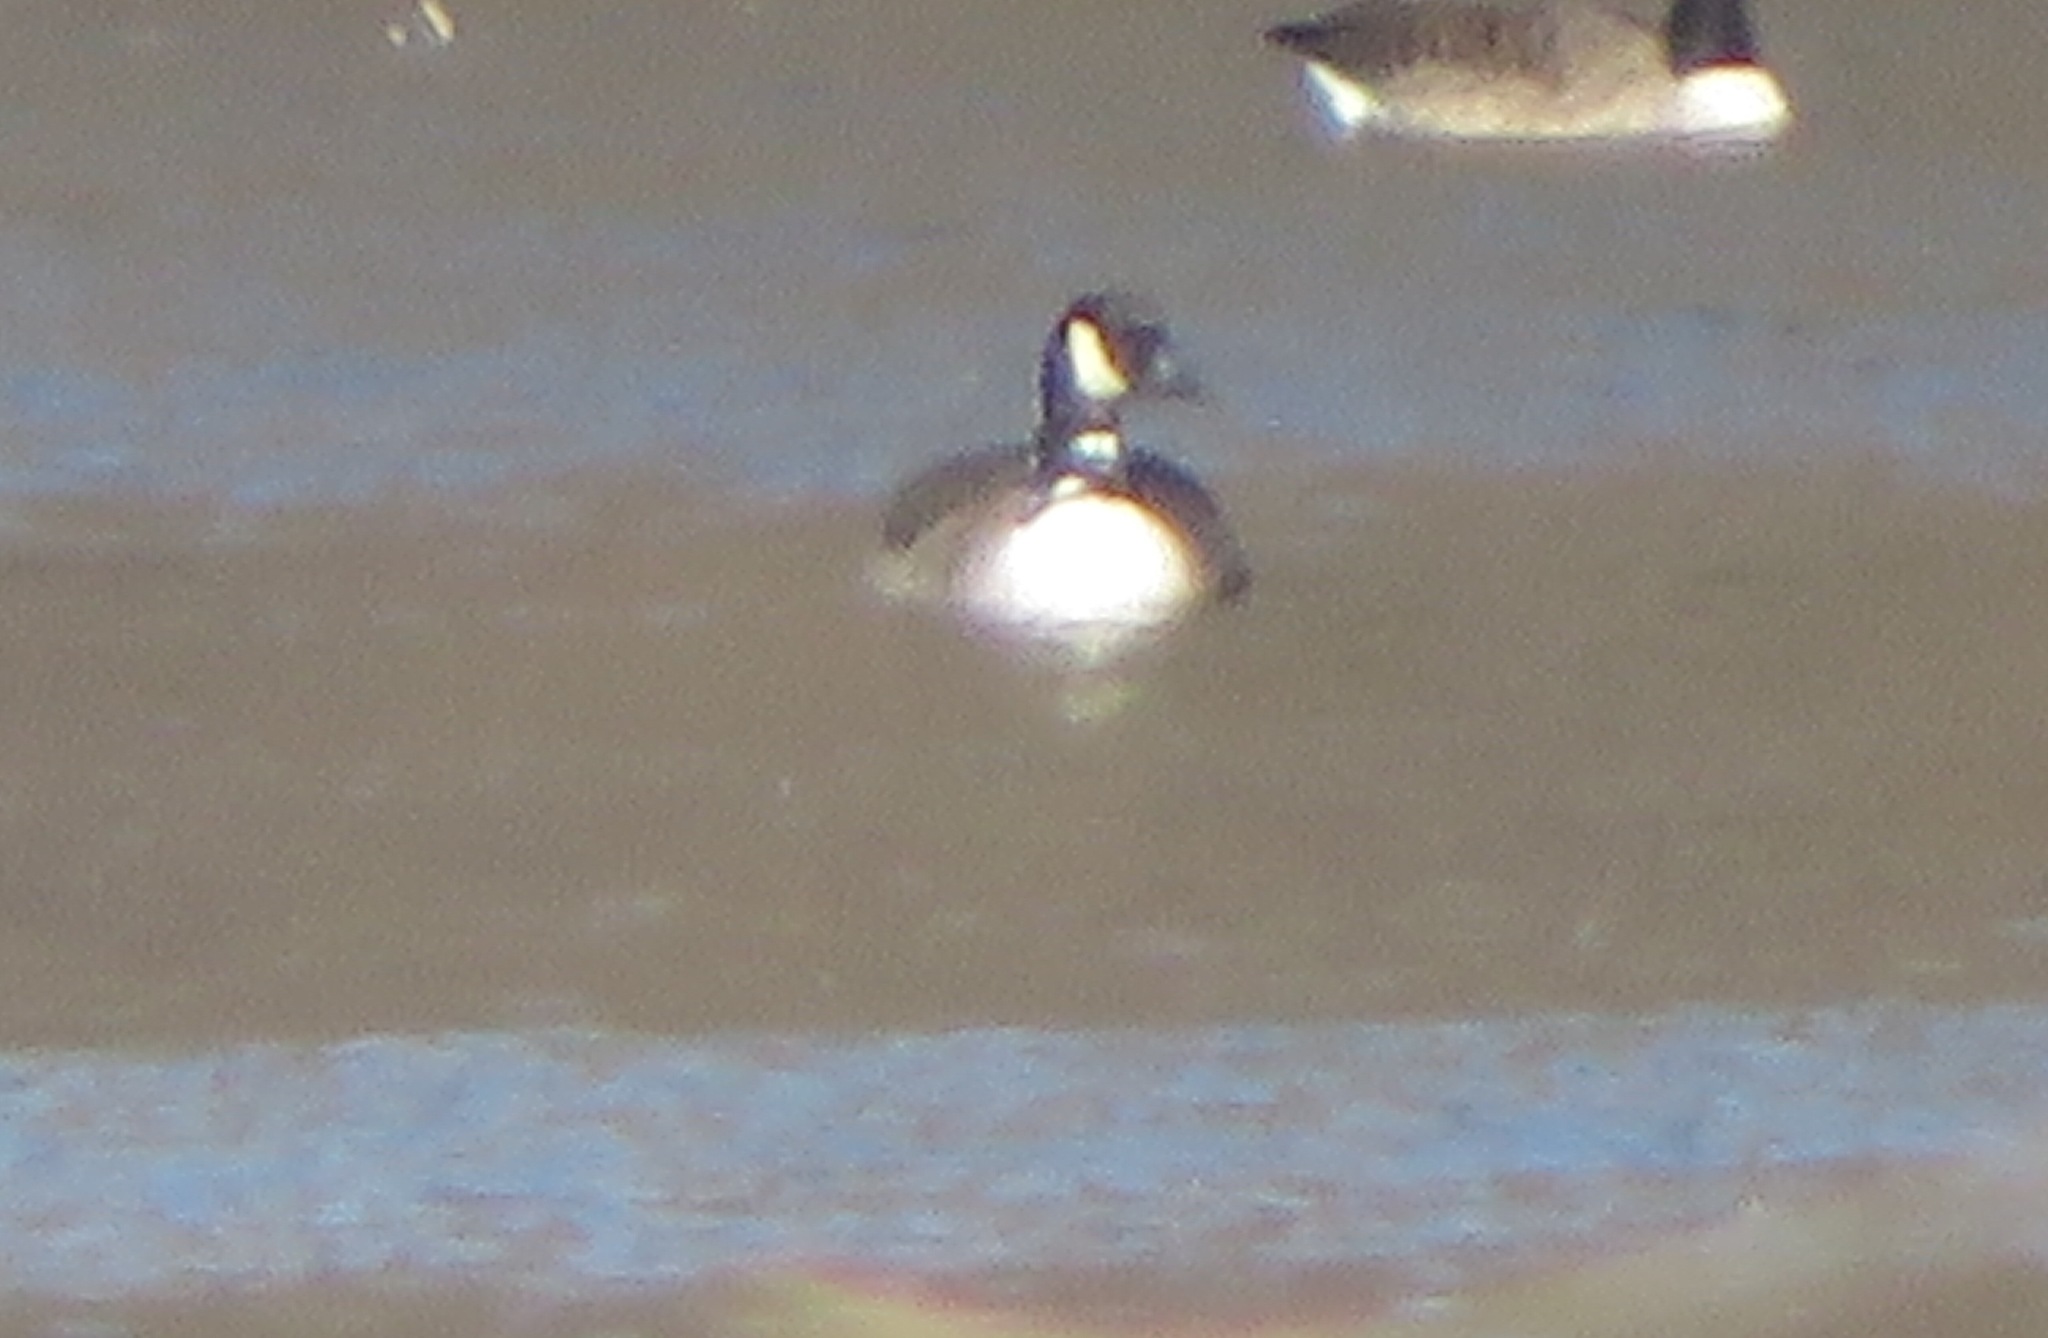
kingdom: Animalia
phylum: Chordata
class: Aves
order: Anseriformes
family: Anatidae
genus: Branta
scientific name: Branta canadensis
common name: Canada goose
